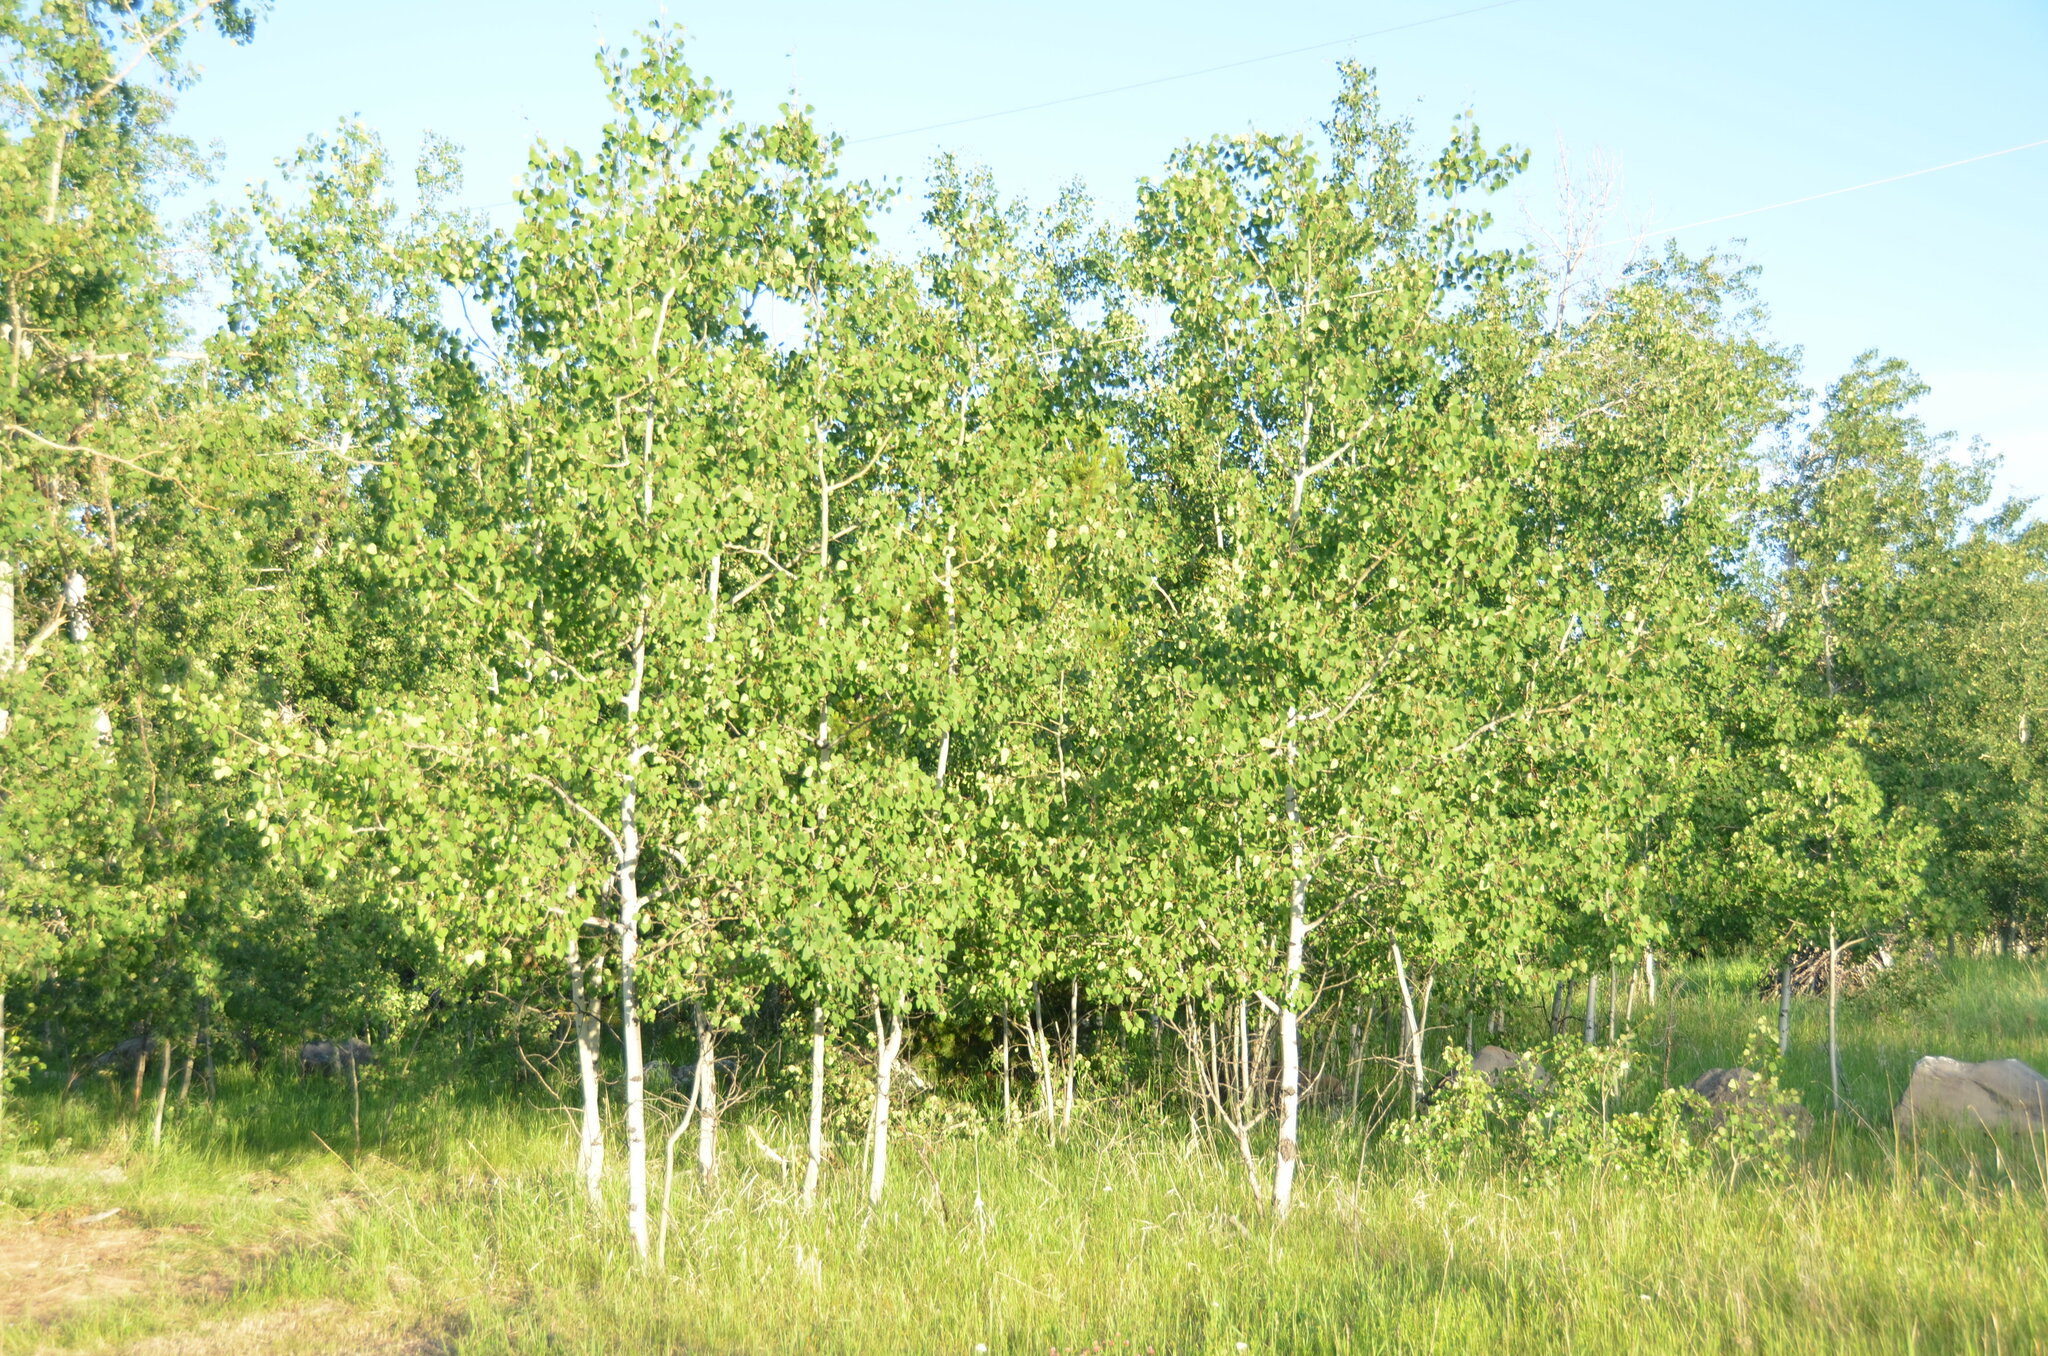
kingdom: Plantae
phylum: Tracheophyta
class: Magnoliopsida
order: Malpighiales
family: Salicaceae
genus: Populus
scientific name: Populus tremuloides
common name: Quaking aspen
